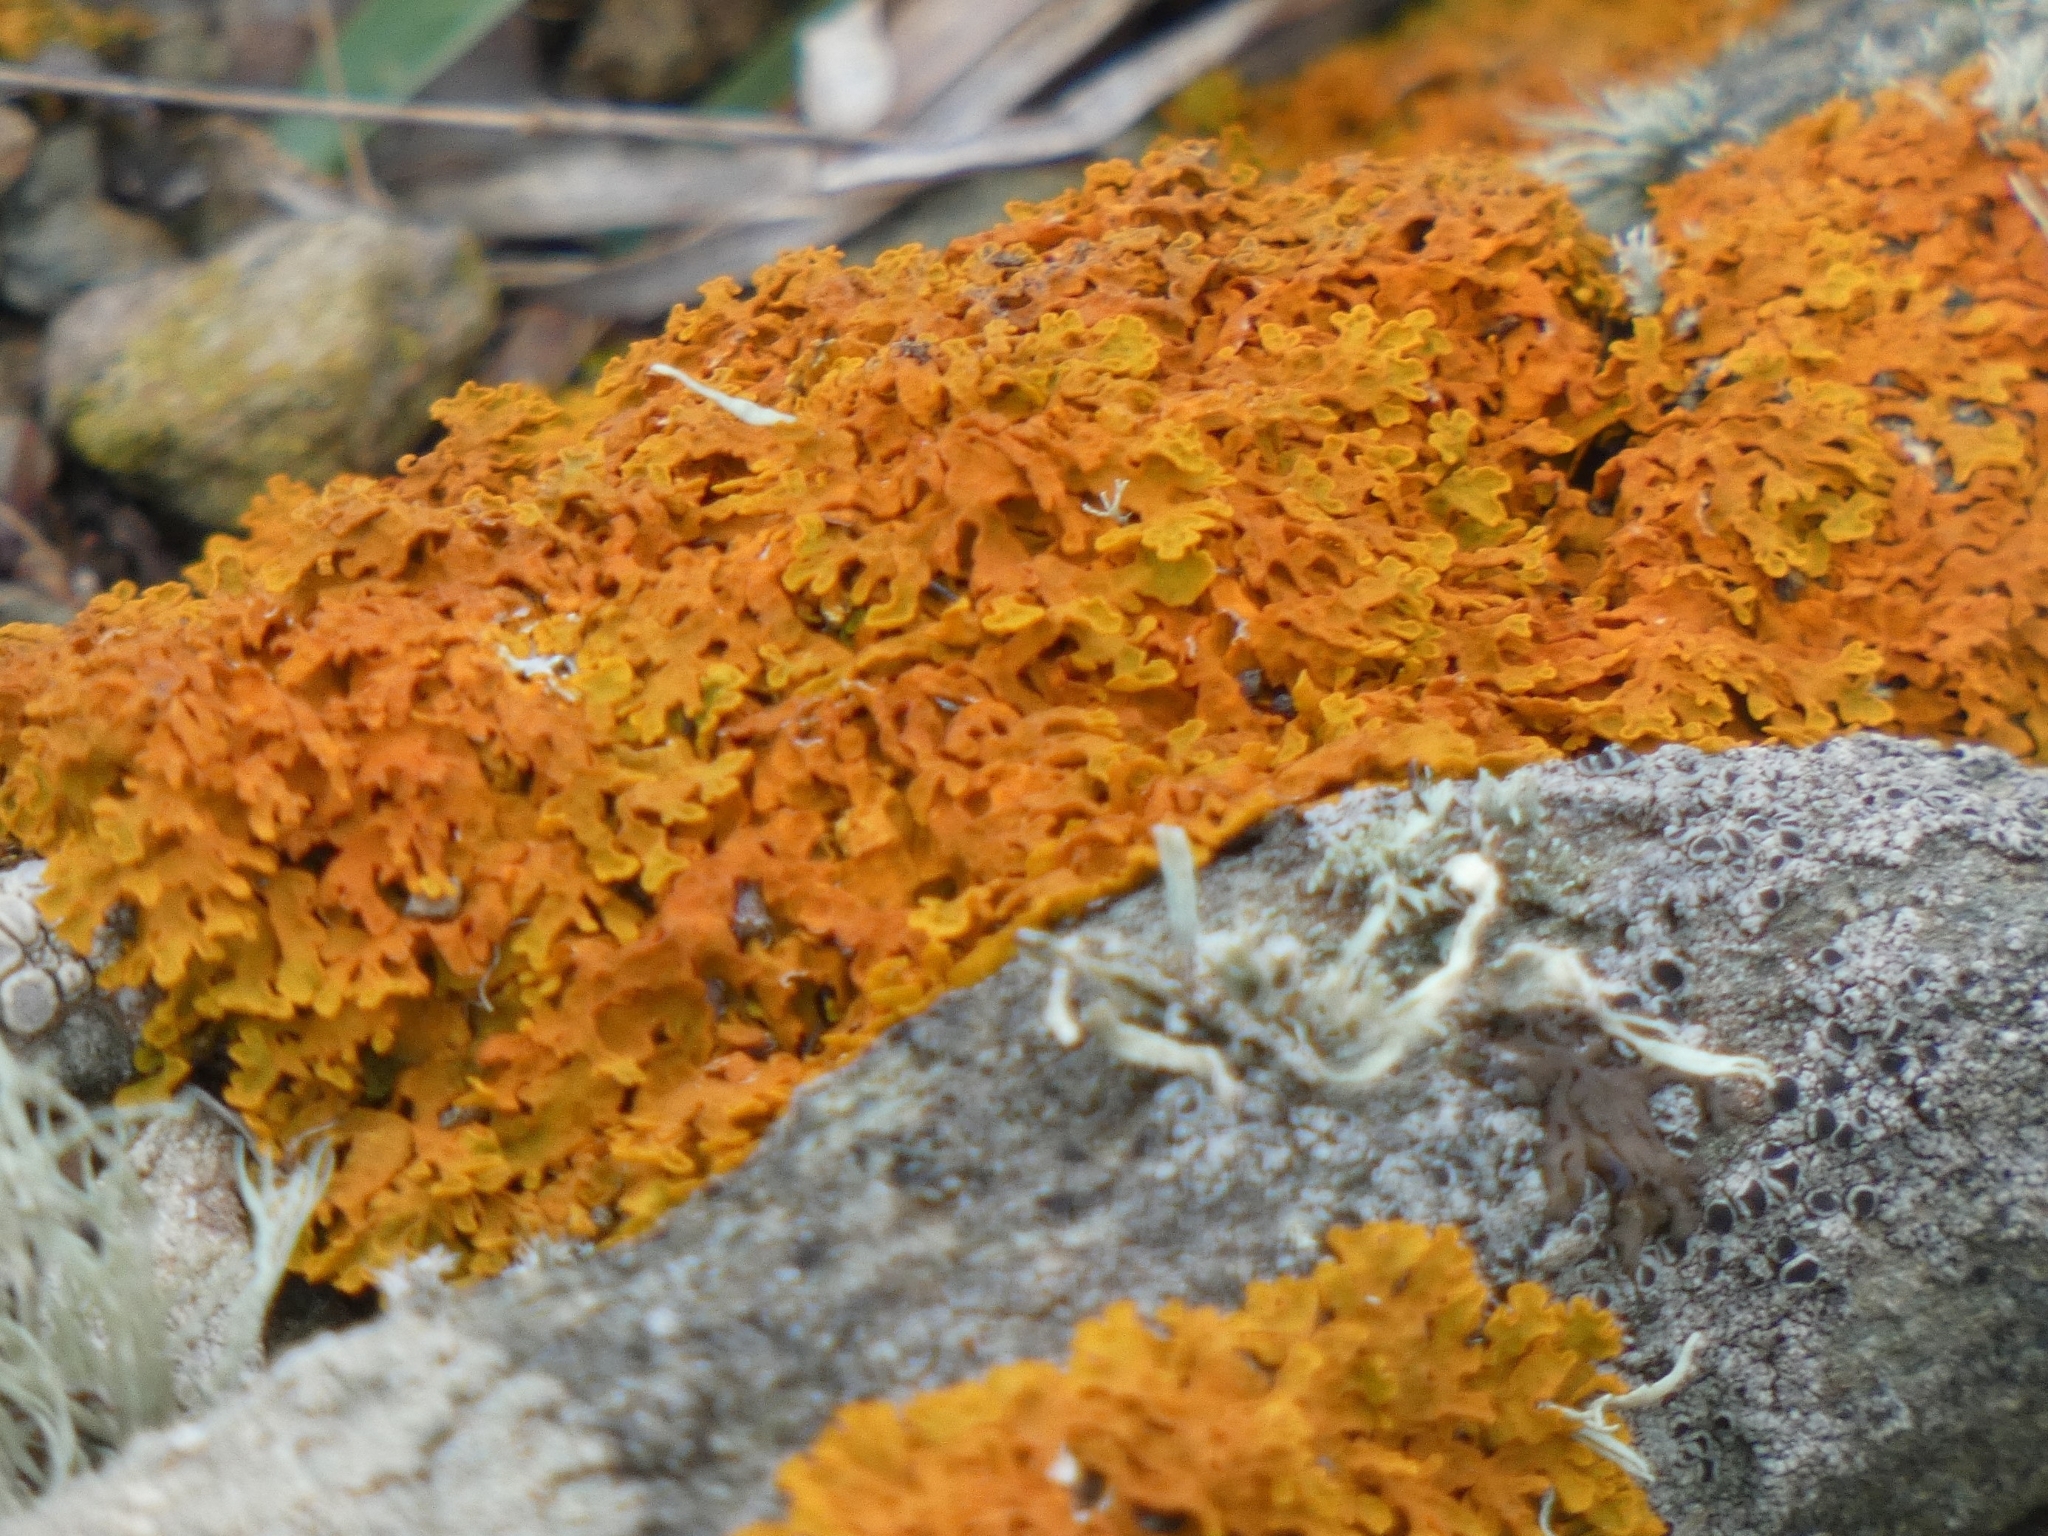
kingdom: Fungi
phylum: Ascomycota
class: Lecanoromycetes
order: Teloschistales
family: Teloschistaceae
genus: Xanthoria
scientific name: Xanthoria aureola
